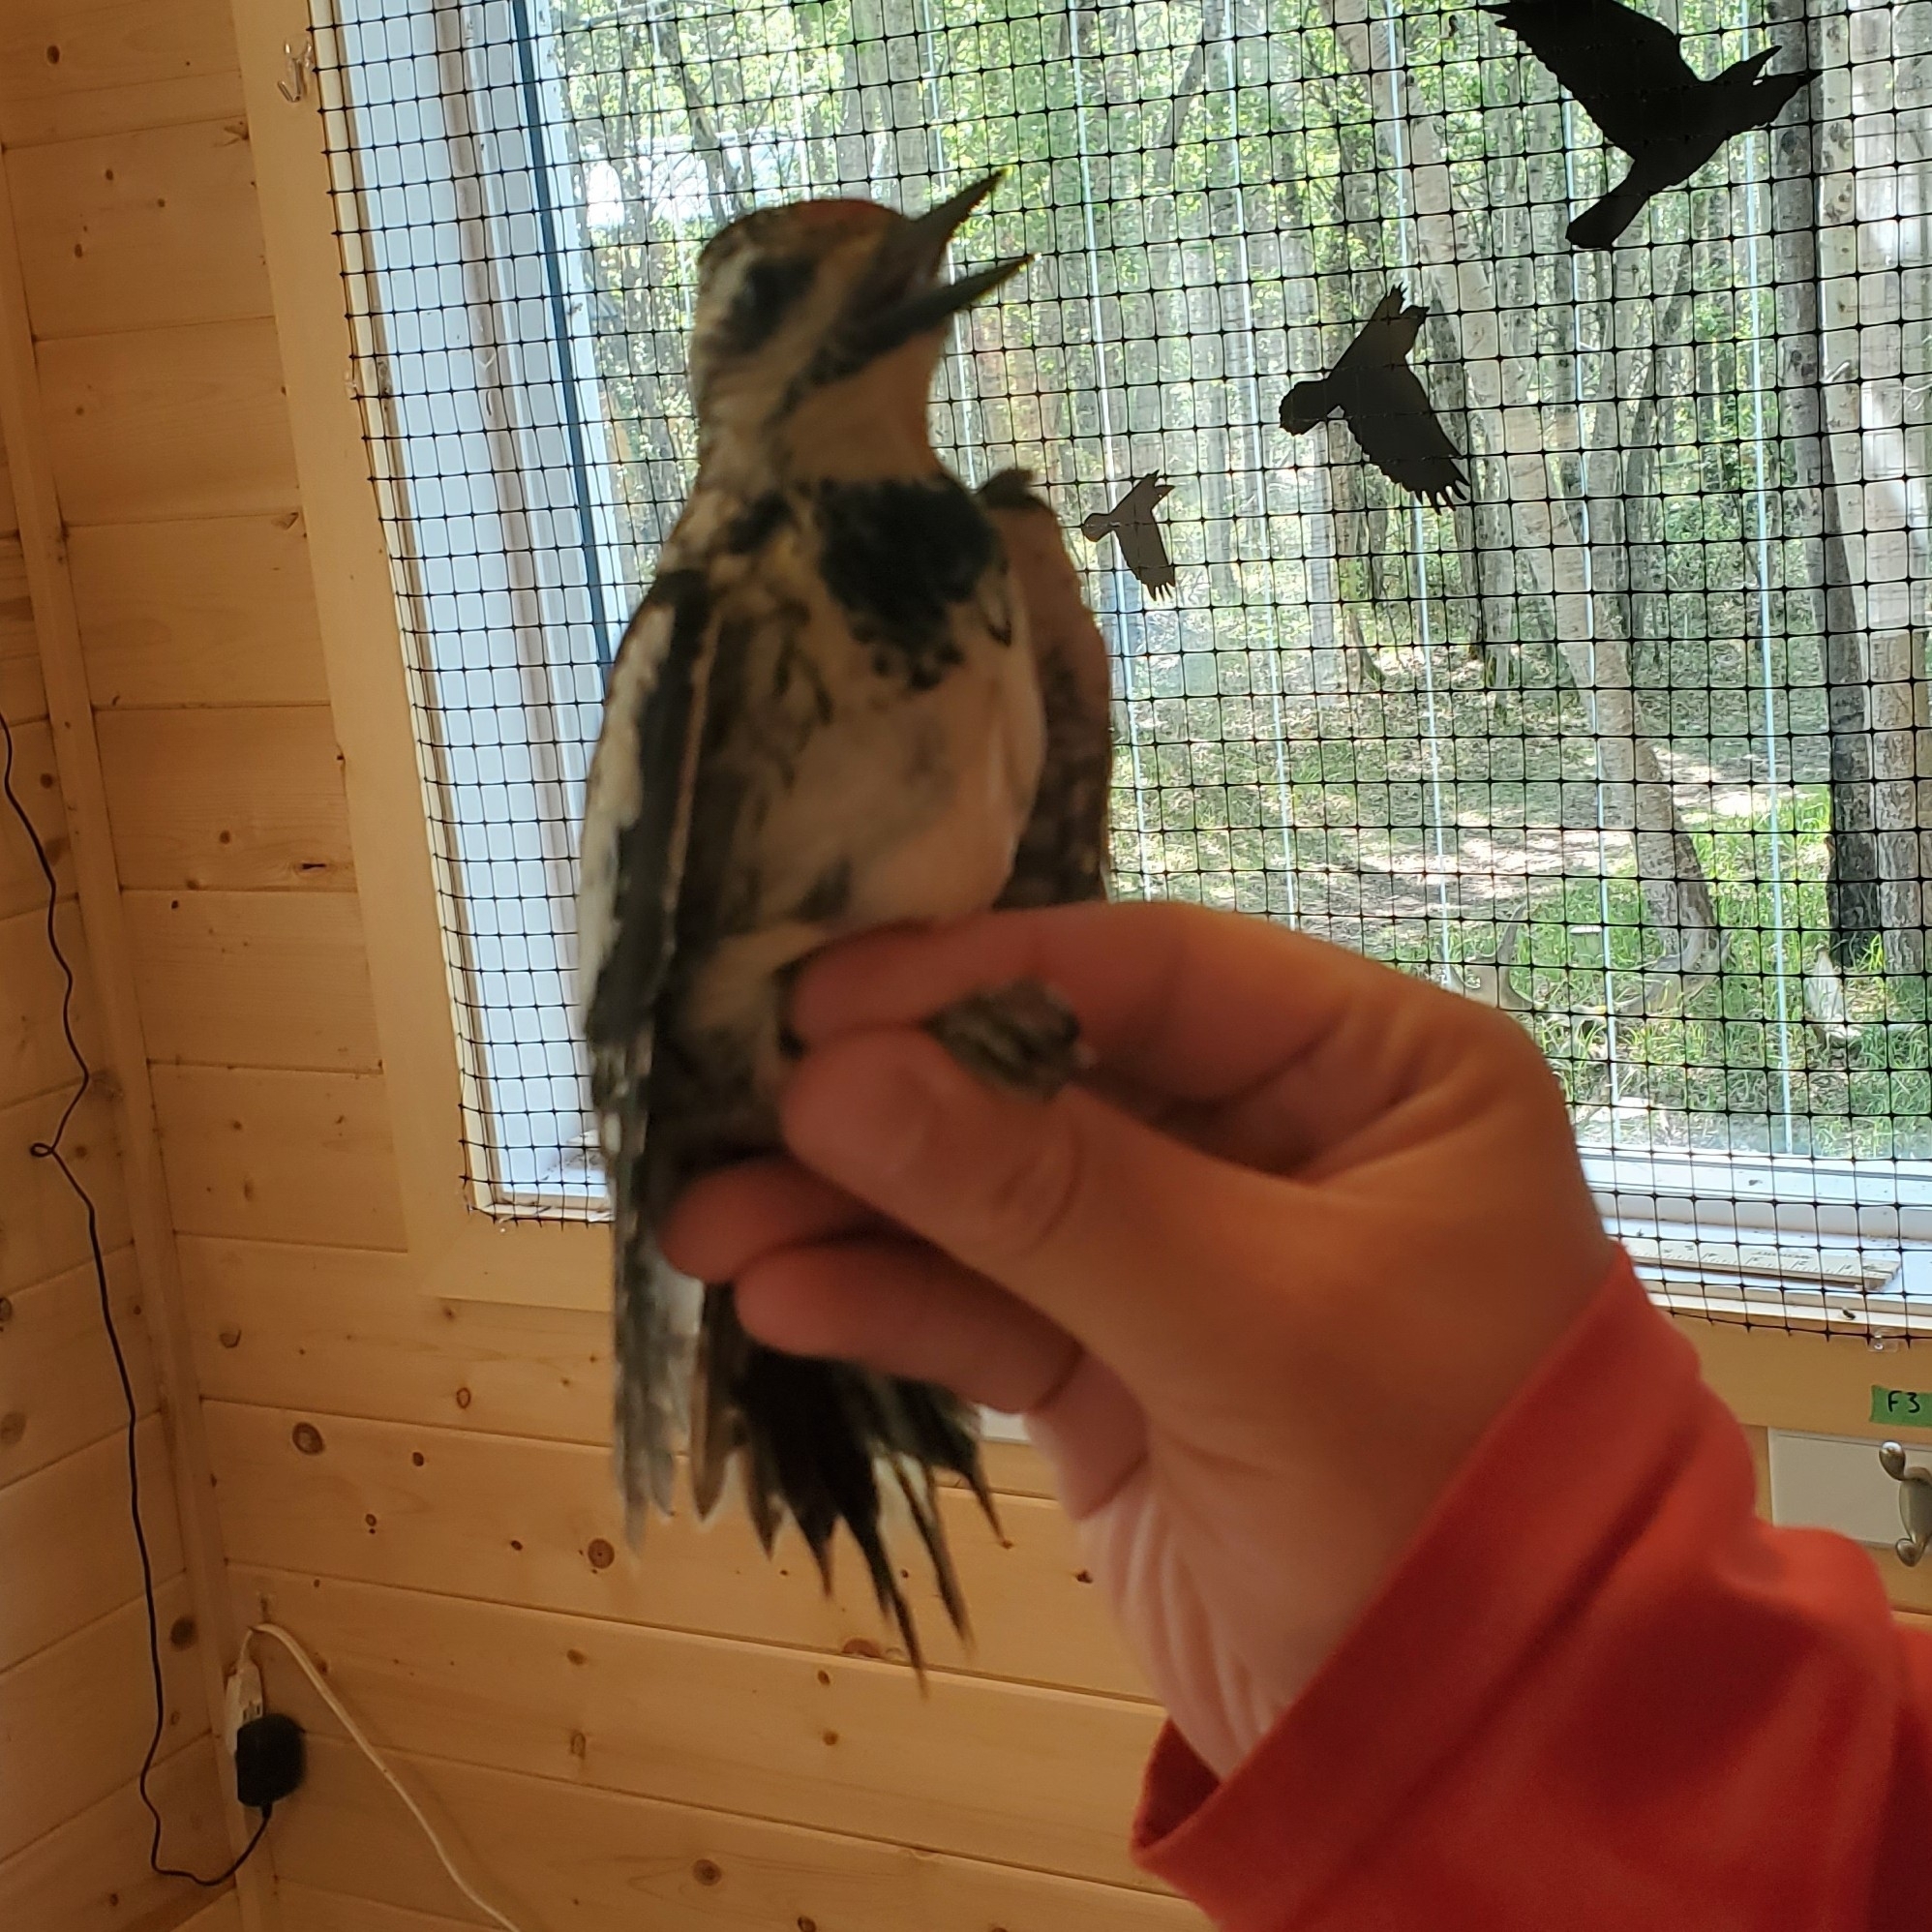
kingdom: Animalia
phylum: Chordata
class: Aves
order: Piciformes
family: Picidae
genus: Sphyrapicus
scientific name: Sphyrapicus varius
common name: Yellow-bellied sapsucker
